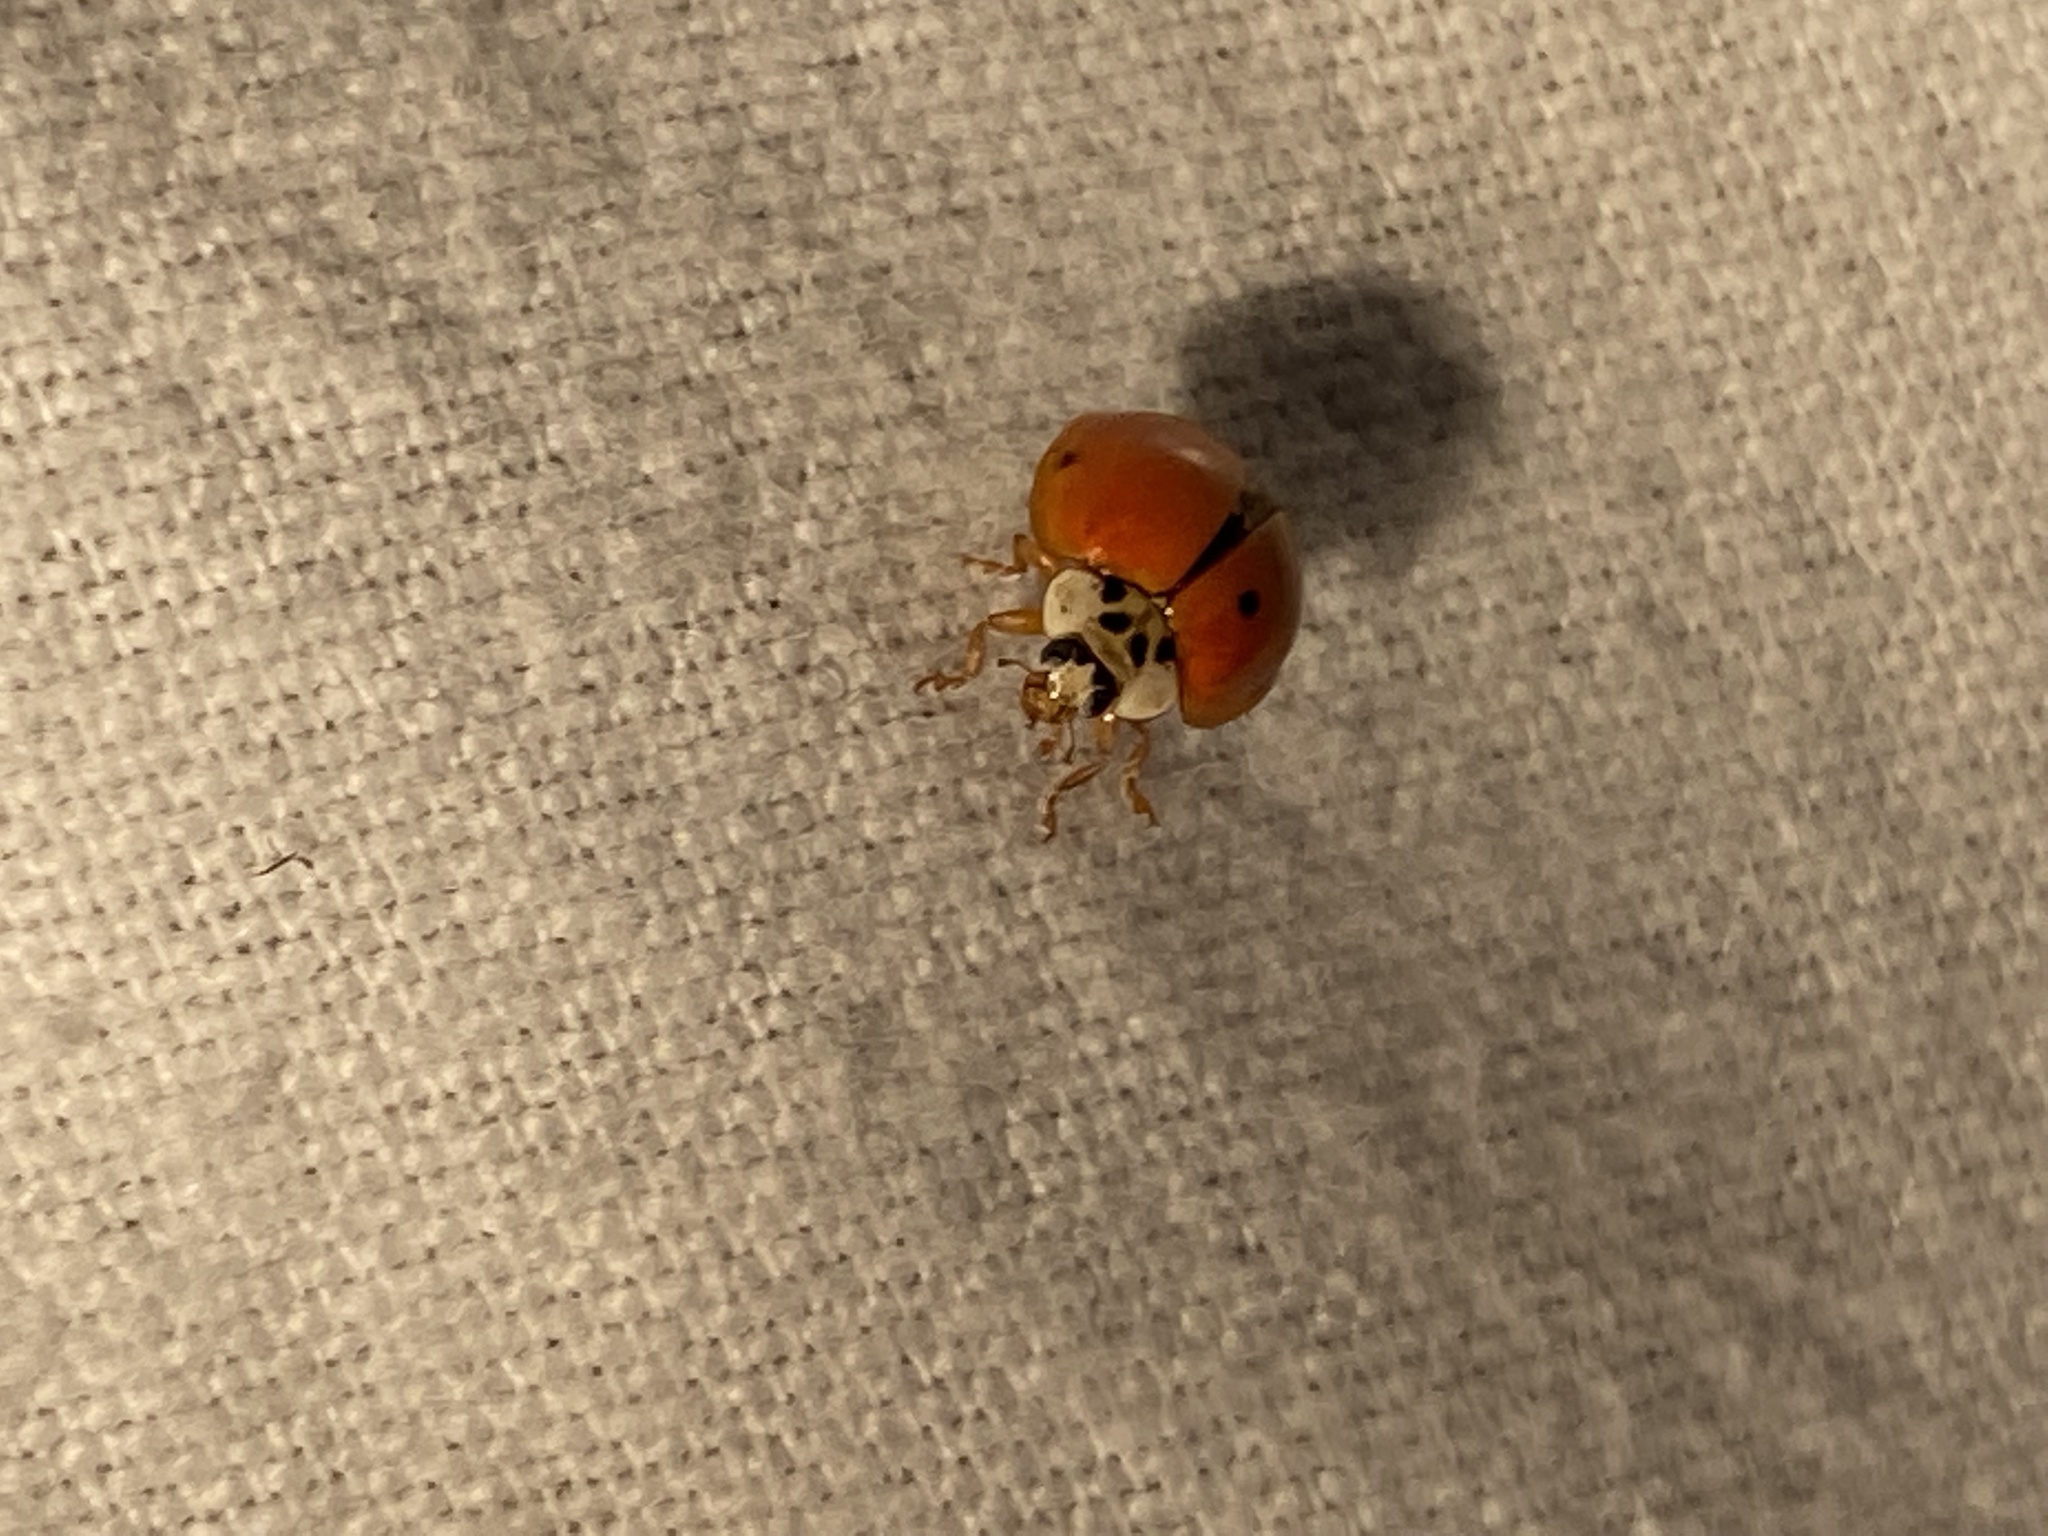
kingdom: Animalia
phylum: Arthropoda
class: Insecta
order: Coleoptera
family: Coccinellidae
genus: Harmonia
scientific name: Harmonia axyridis
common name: Harlequin ladybird
